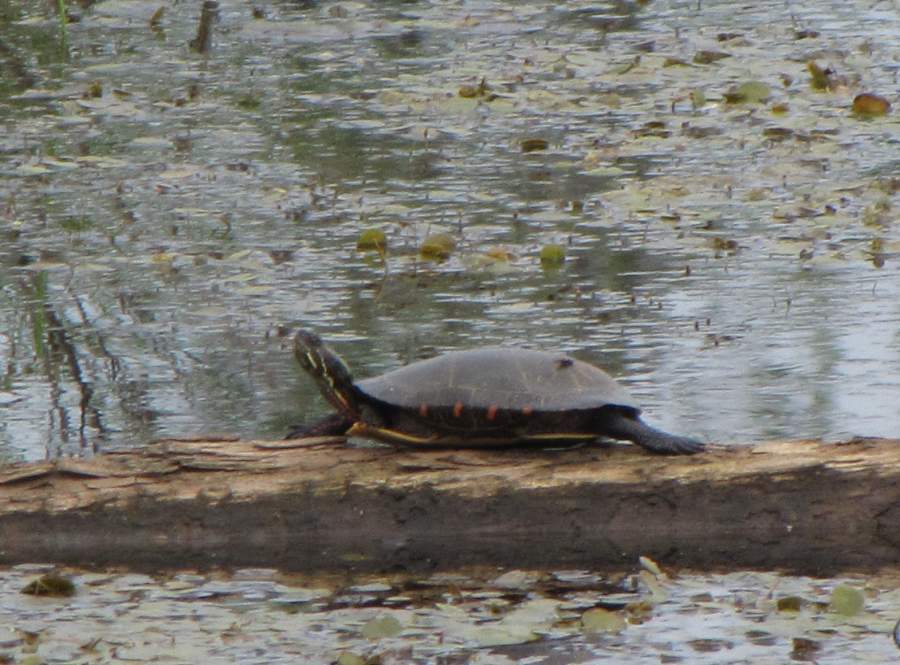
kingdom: Animalia
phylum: Chordata
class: Testudines
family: Emydidae
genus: Chrysemys
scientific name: Chrysemys picta
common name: Painted turtle
